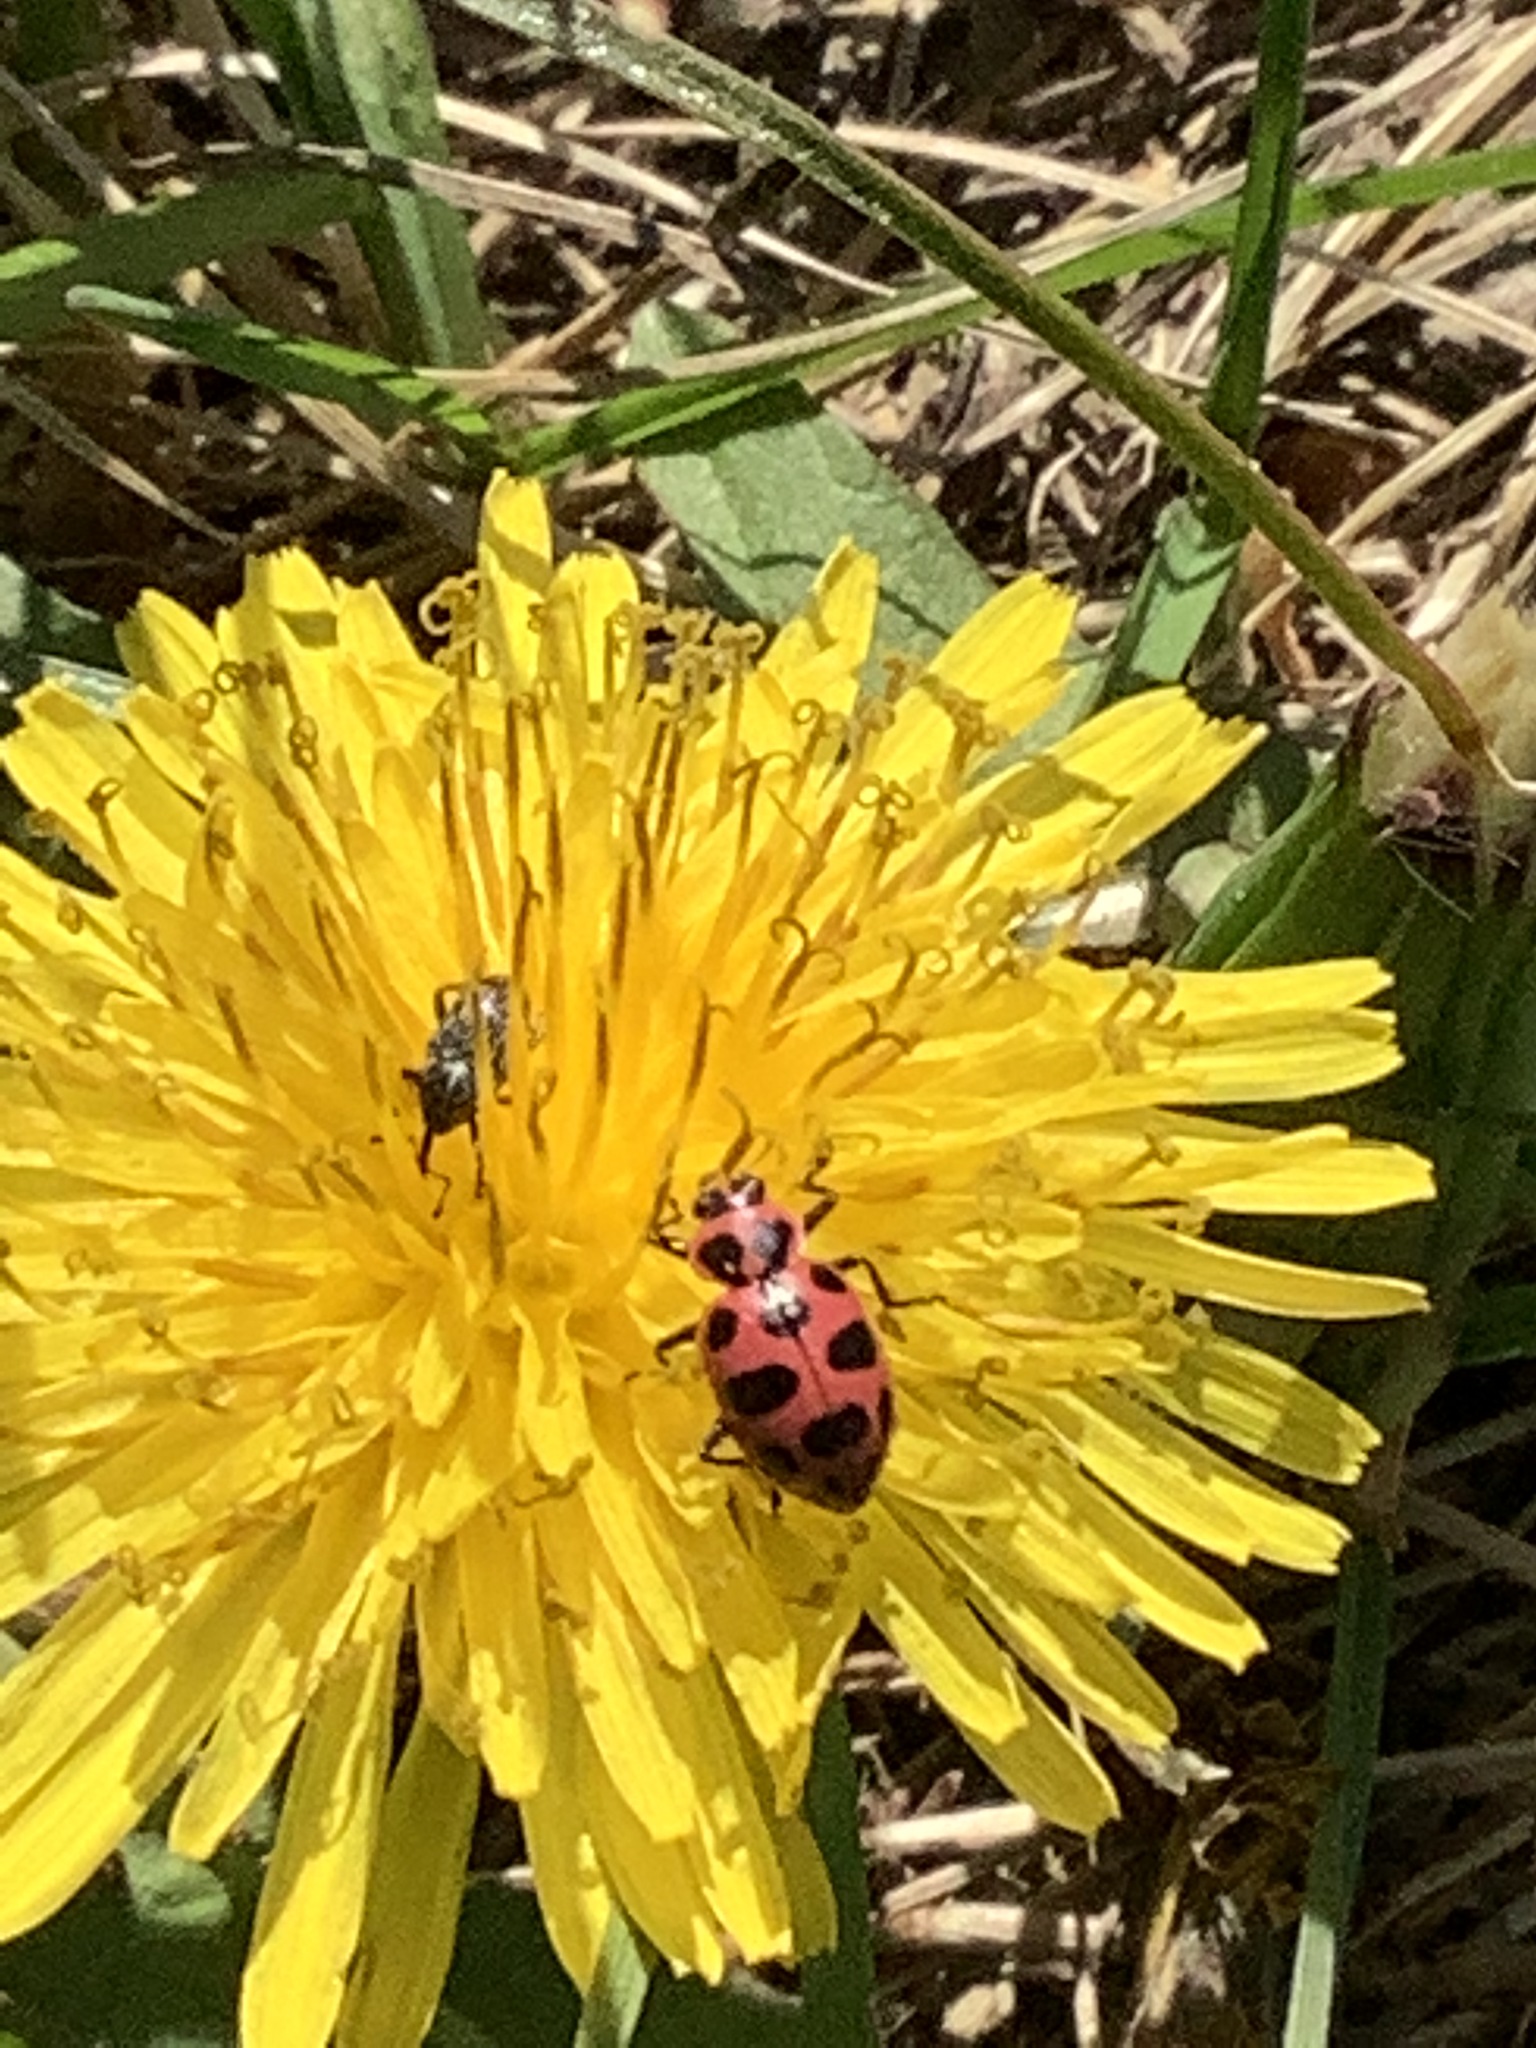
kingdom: Animalia
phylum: Arthropoda
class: Insecta
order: Coleoptera
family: Coccinellidae
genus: Coleomegilla
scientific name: Coleomegilla maculata
